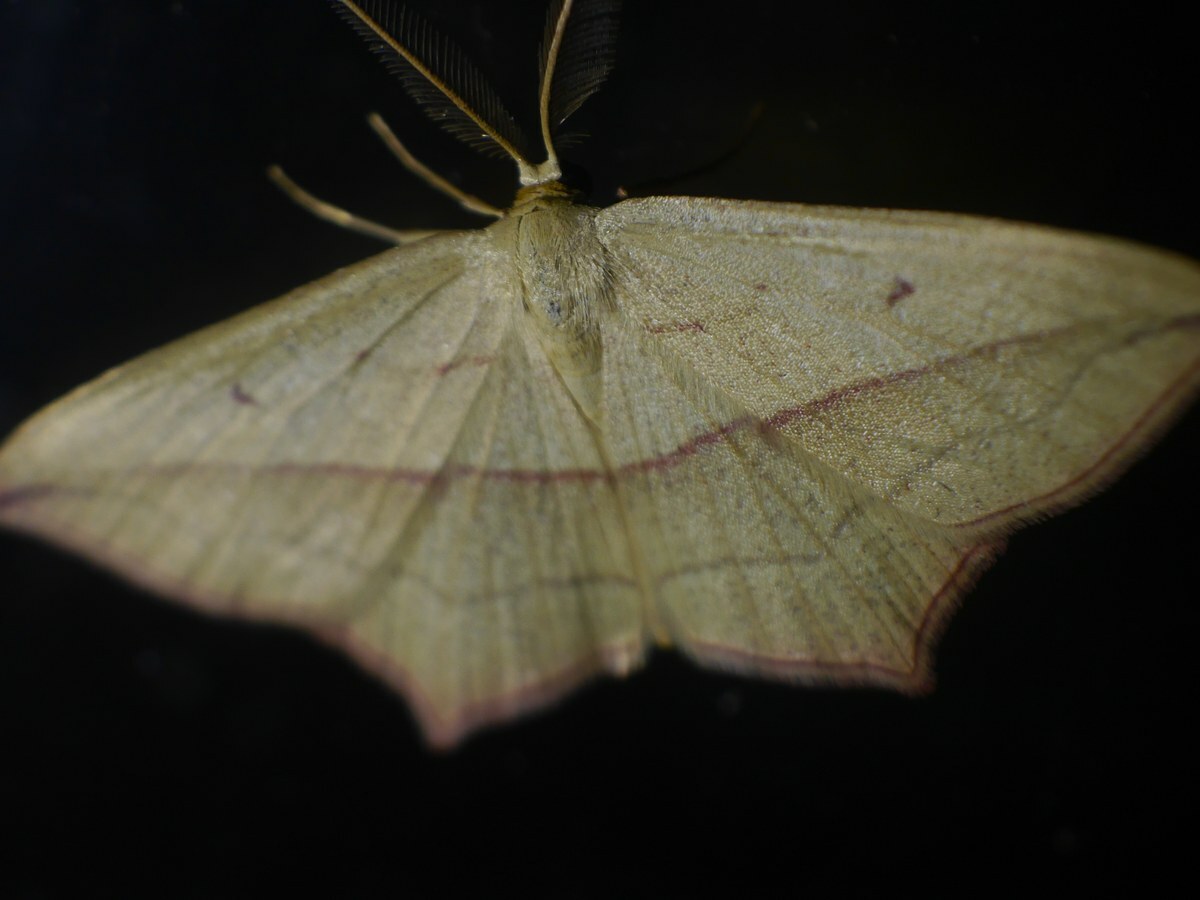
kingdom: Animalia
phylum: Arthropoda
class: Insecta
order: Lepidoptera
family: Geometridae
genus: Timandra
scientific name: Timandra comae
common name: Blood-vein
